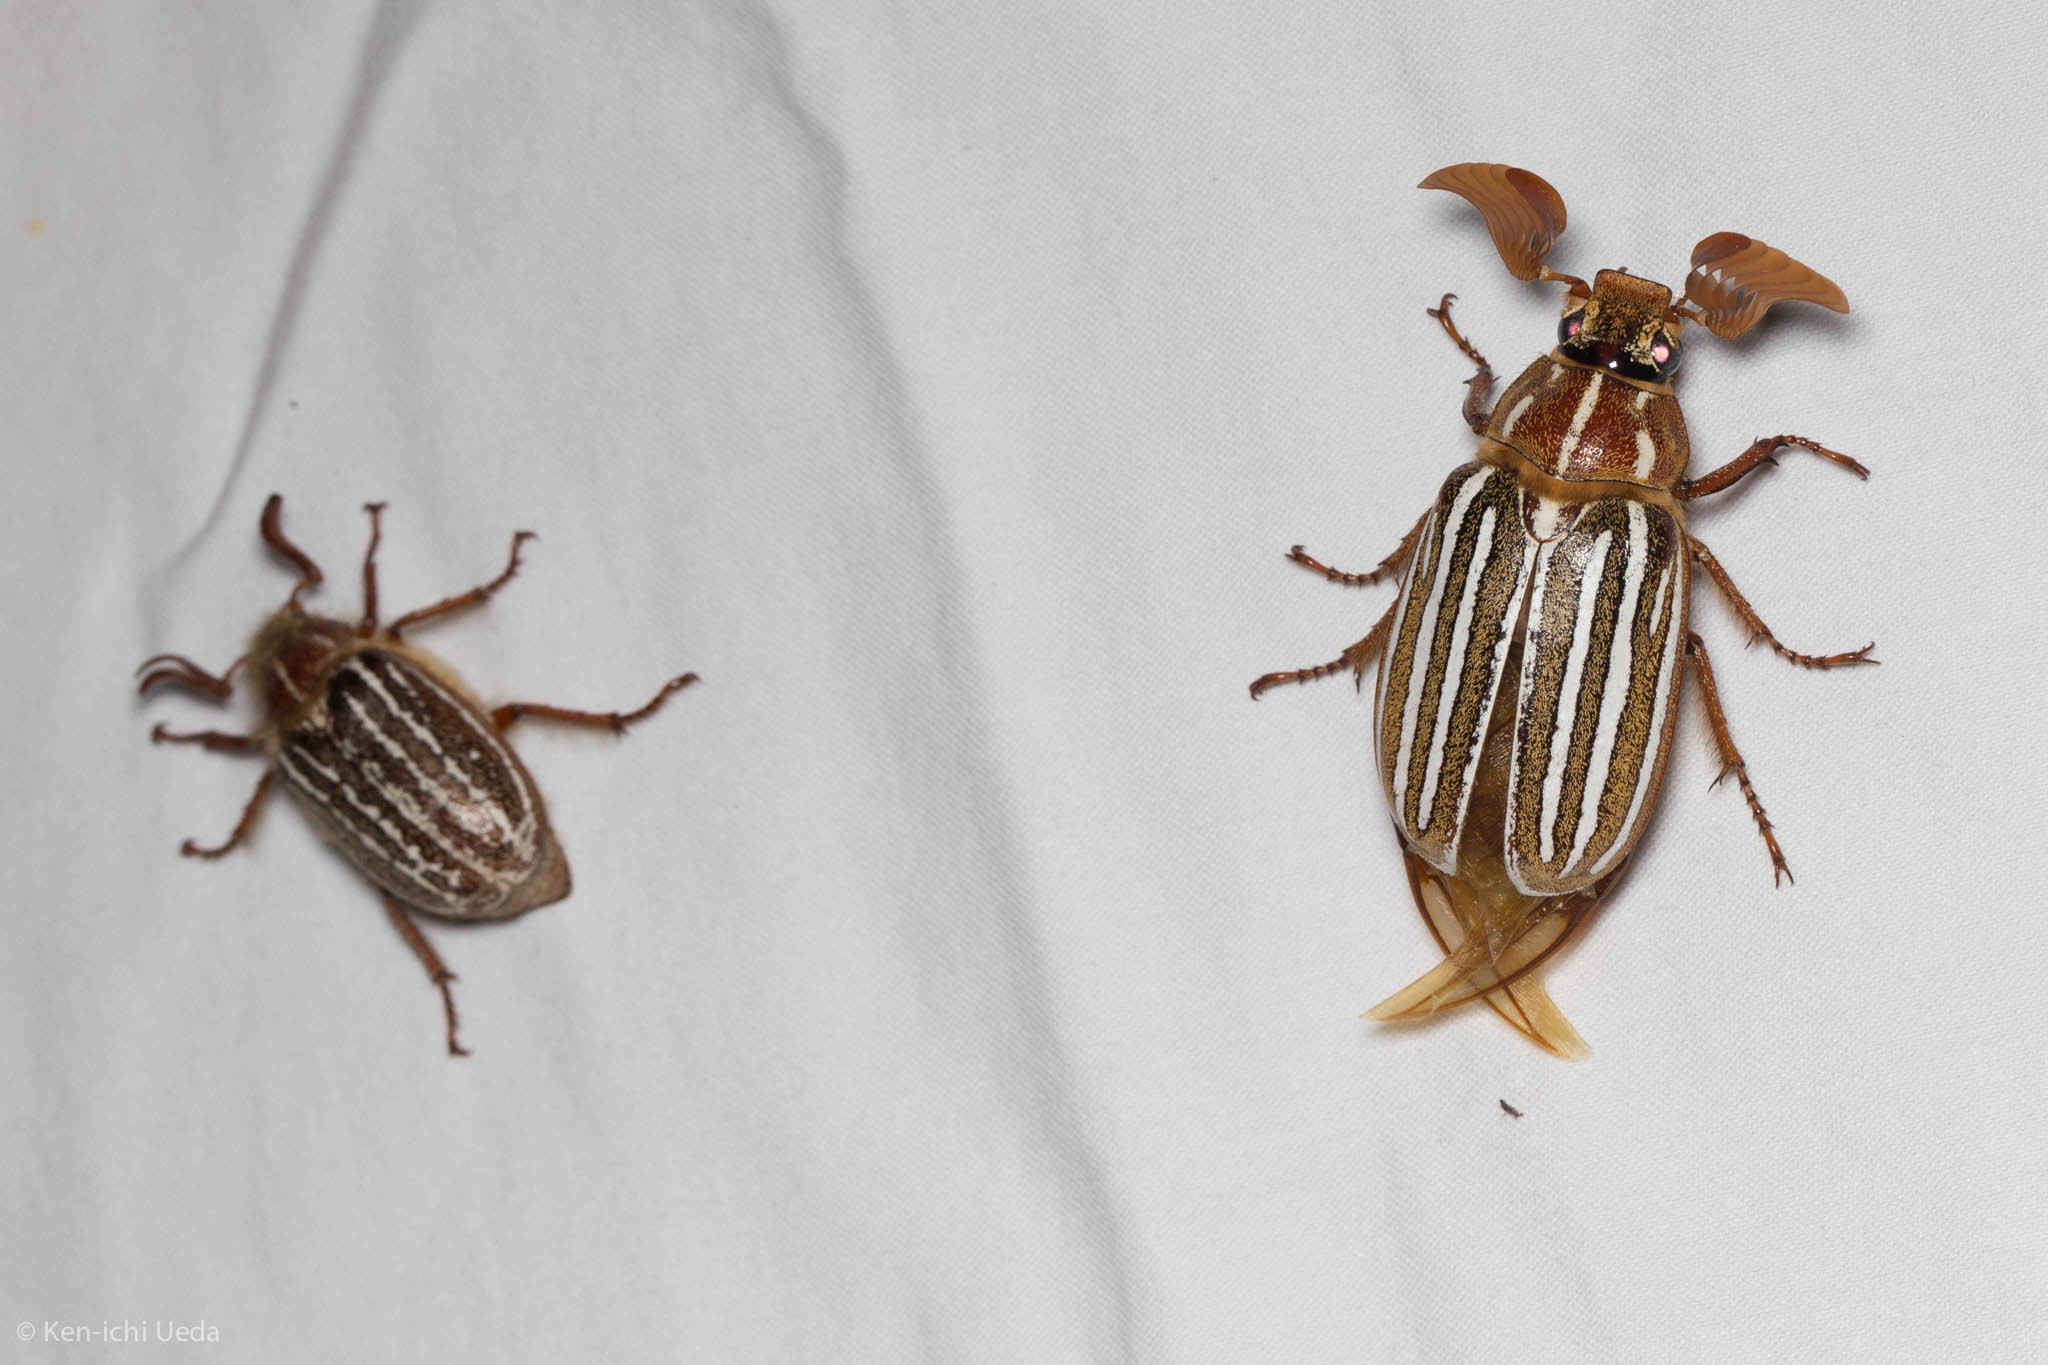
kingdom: Animalia
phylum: Arthropoda
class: Insecta
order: Coleoptera
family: Scarabaeidae
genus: Polyphylla
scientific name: Polyphylla decemlineata
